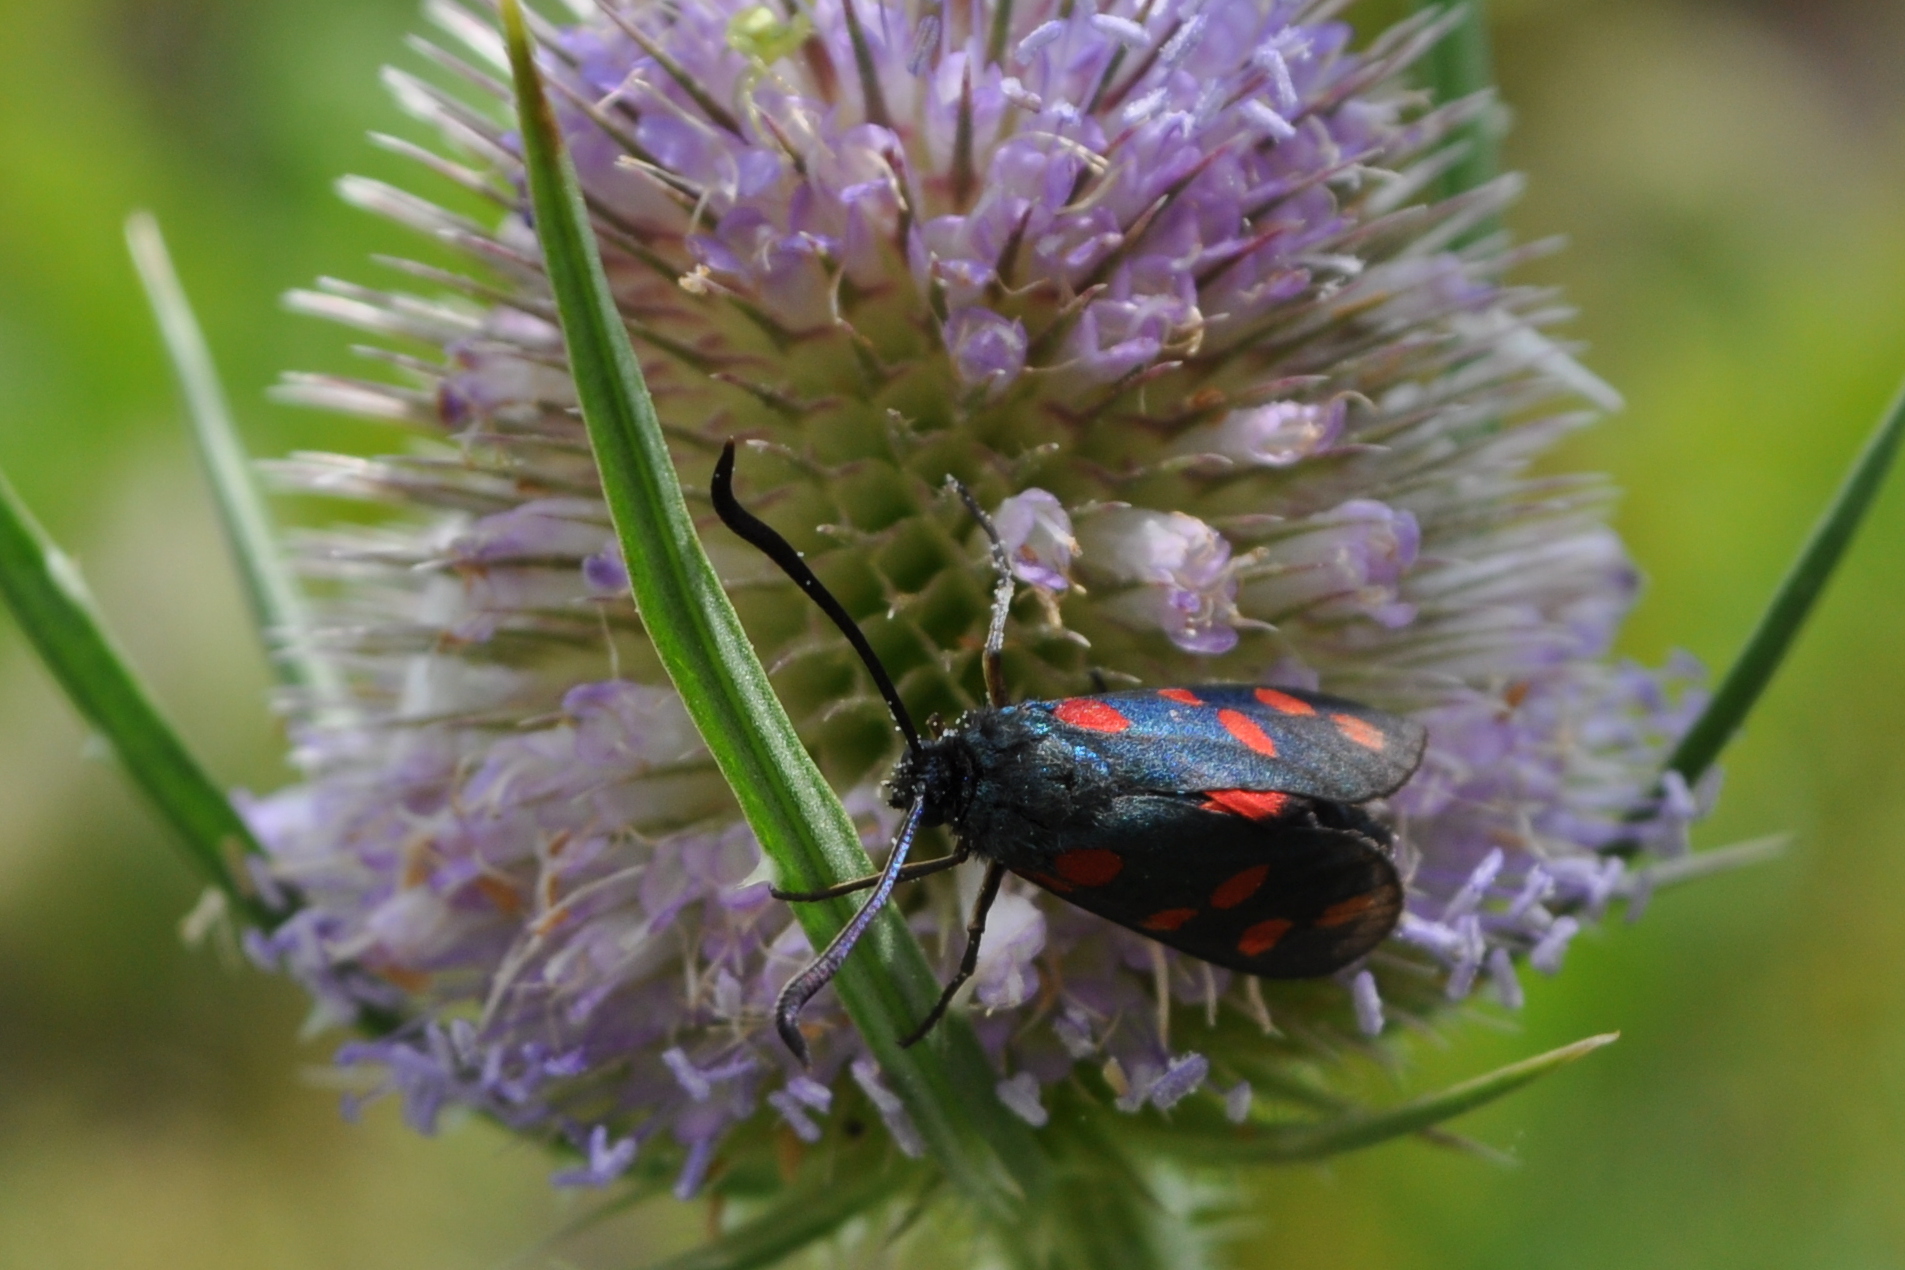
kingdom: Animalia
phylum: Arthropoda
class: Insecta
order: Lepidoptera
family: Zygaenidae
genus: Zygaena
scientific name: Zygaena filipendulae
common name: Six-spot burnet
